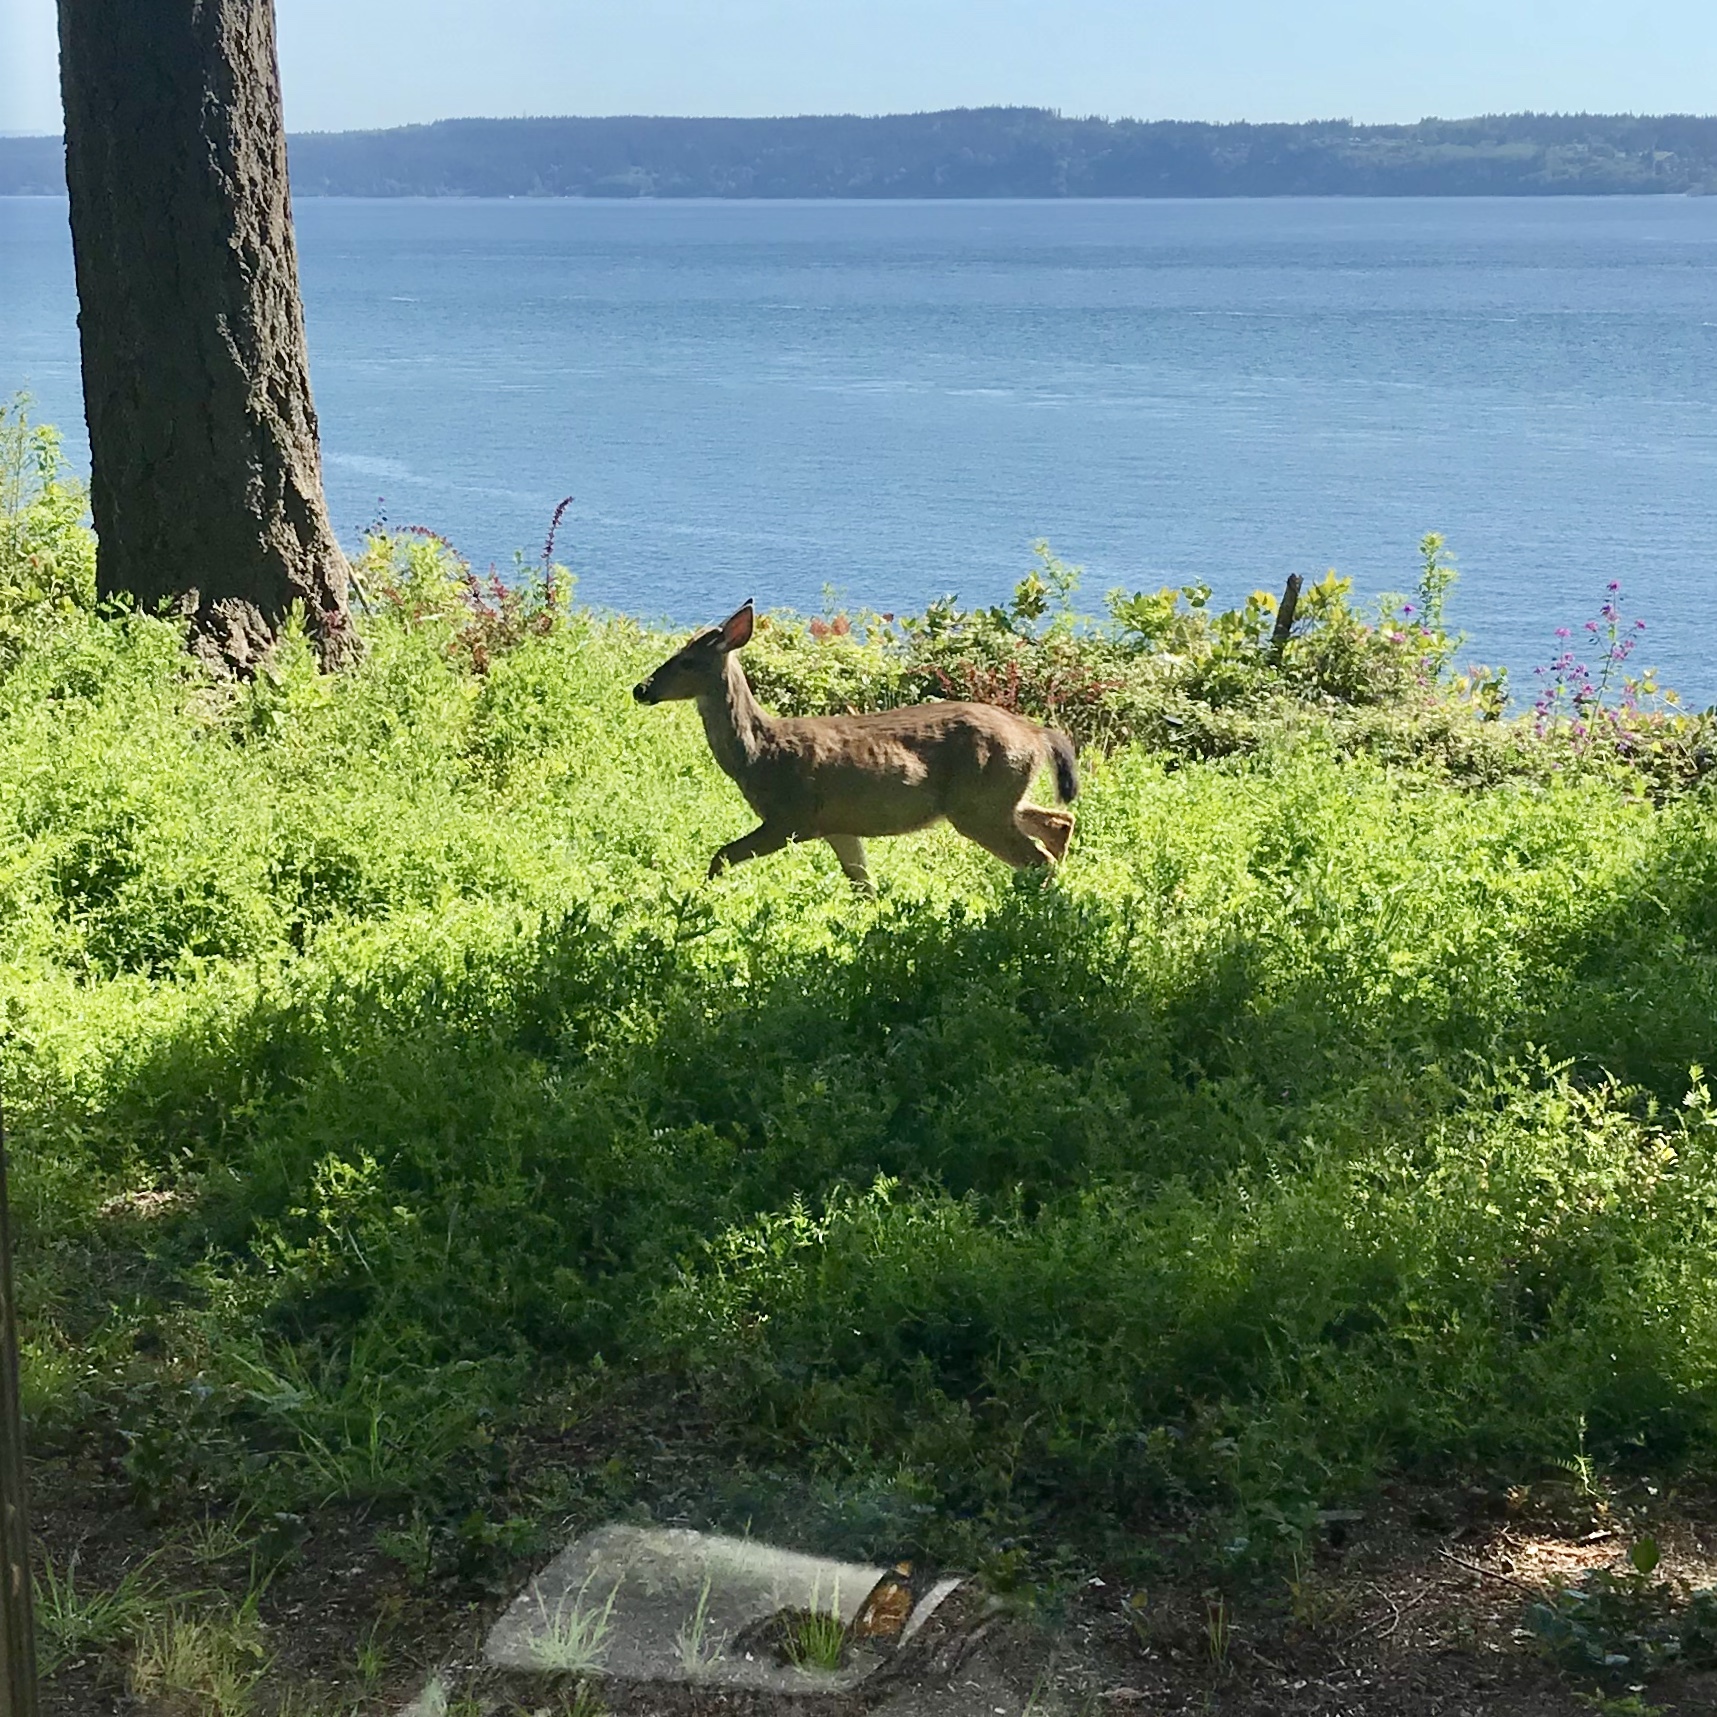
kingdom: Animalia
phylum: Chordata
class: Mammalia
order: Artiodactyla
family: Cervidae
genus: Odocoileus
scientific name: Odocoileus hemionus
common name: Mule deer
